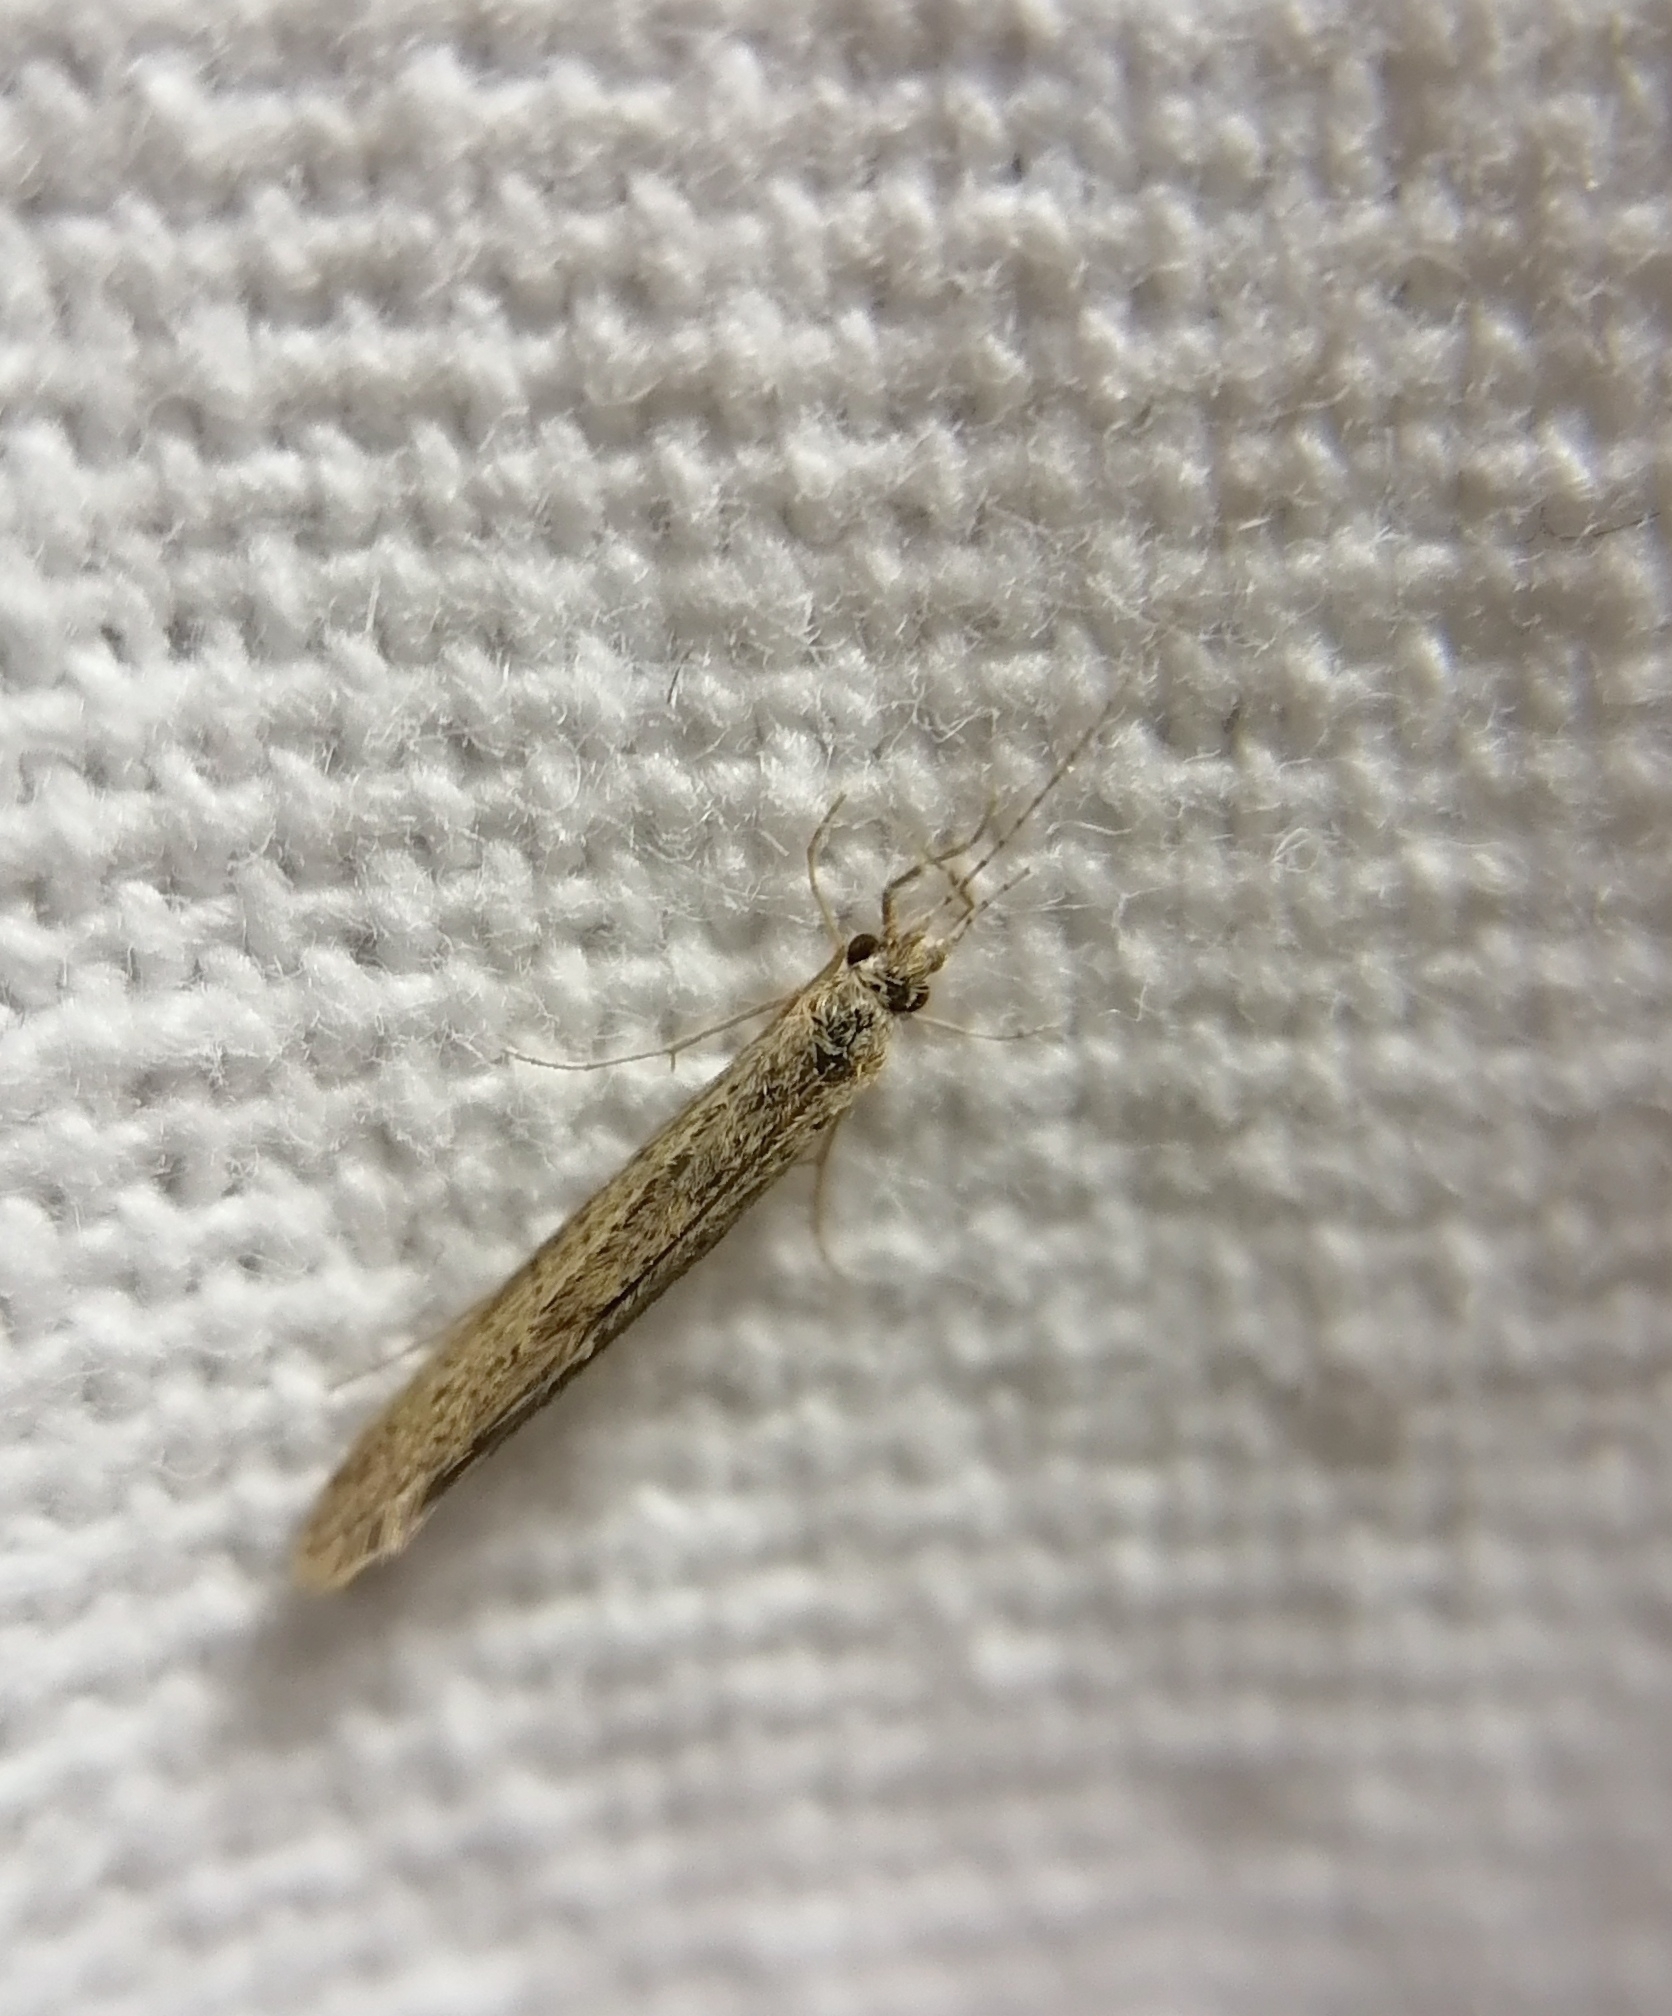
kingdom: Animalia
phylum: Arthropoda
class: Insecta
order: Trichoptera
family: Leptoceridae
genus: Leptocerus
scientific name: Leptocerus tineiformis
